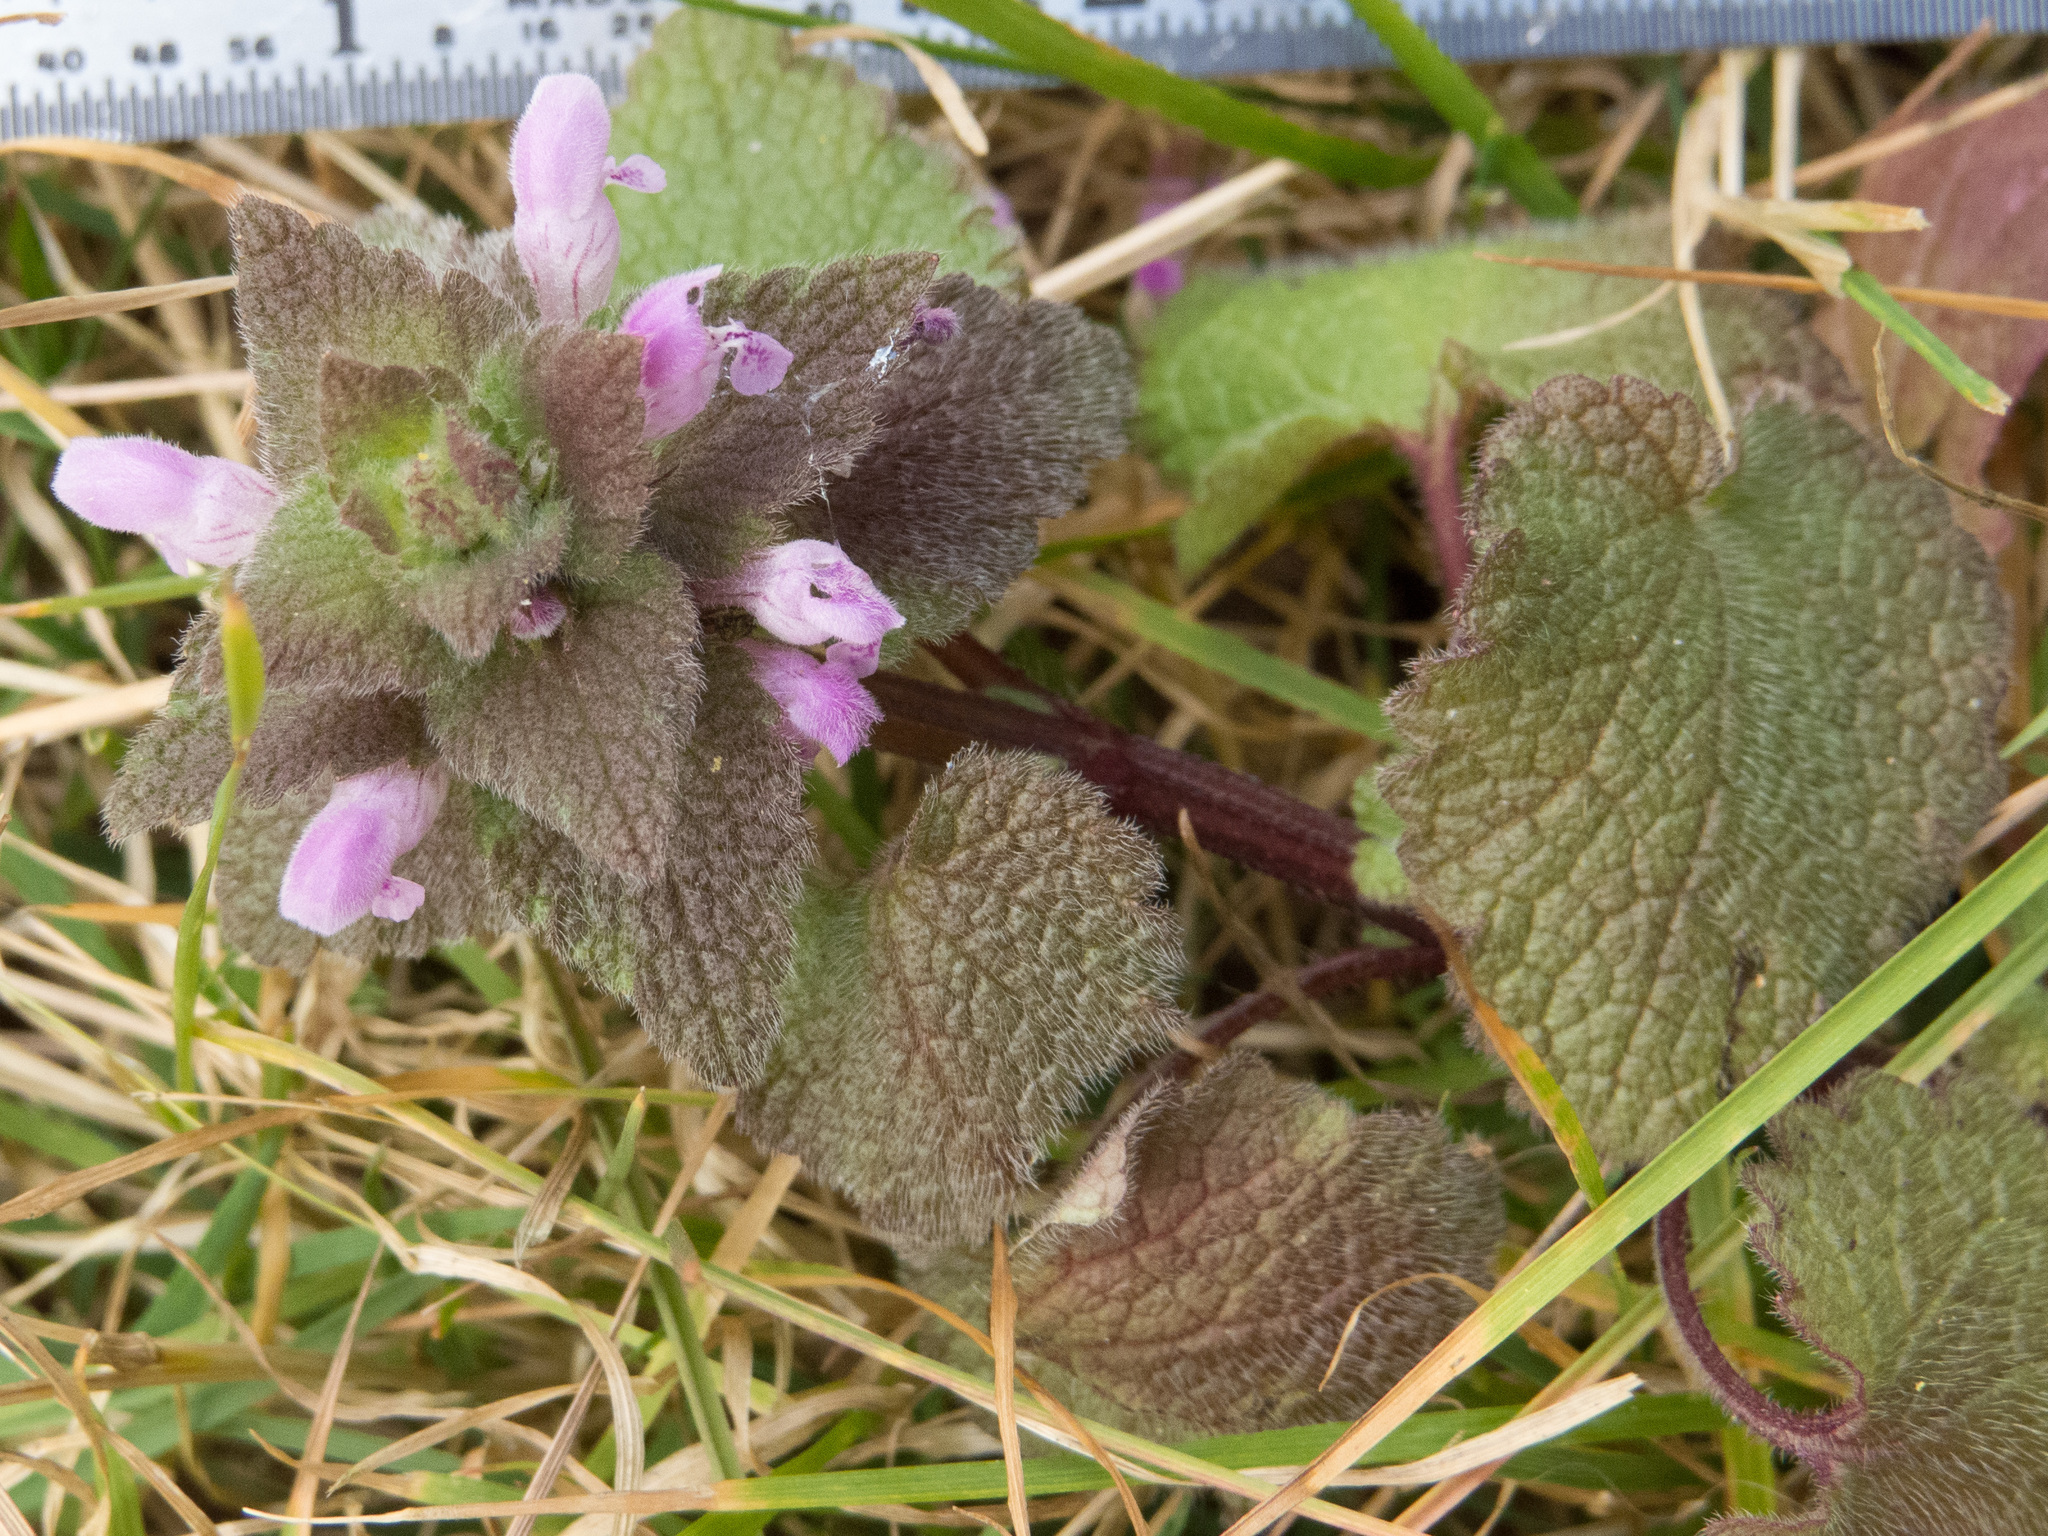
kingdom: Plantae
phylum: Tracheophyta
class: Magnoliopsida
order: Lamiales
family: Lamiaceae
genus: Lamium
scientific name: Lamium purpureum
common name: Red dead-nettle
